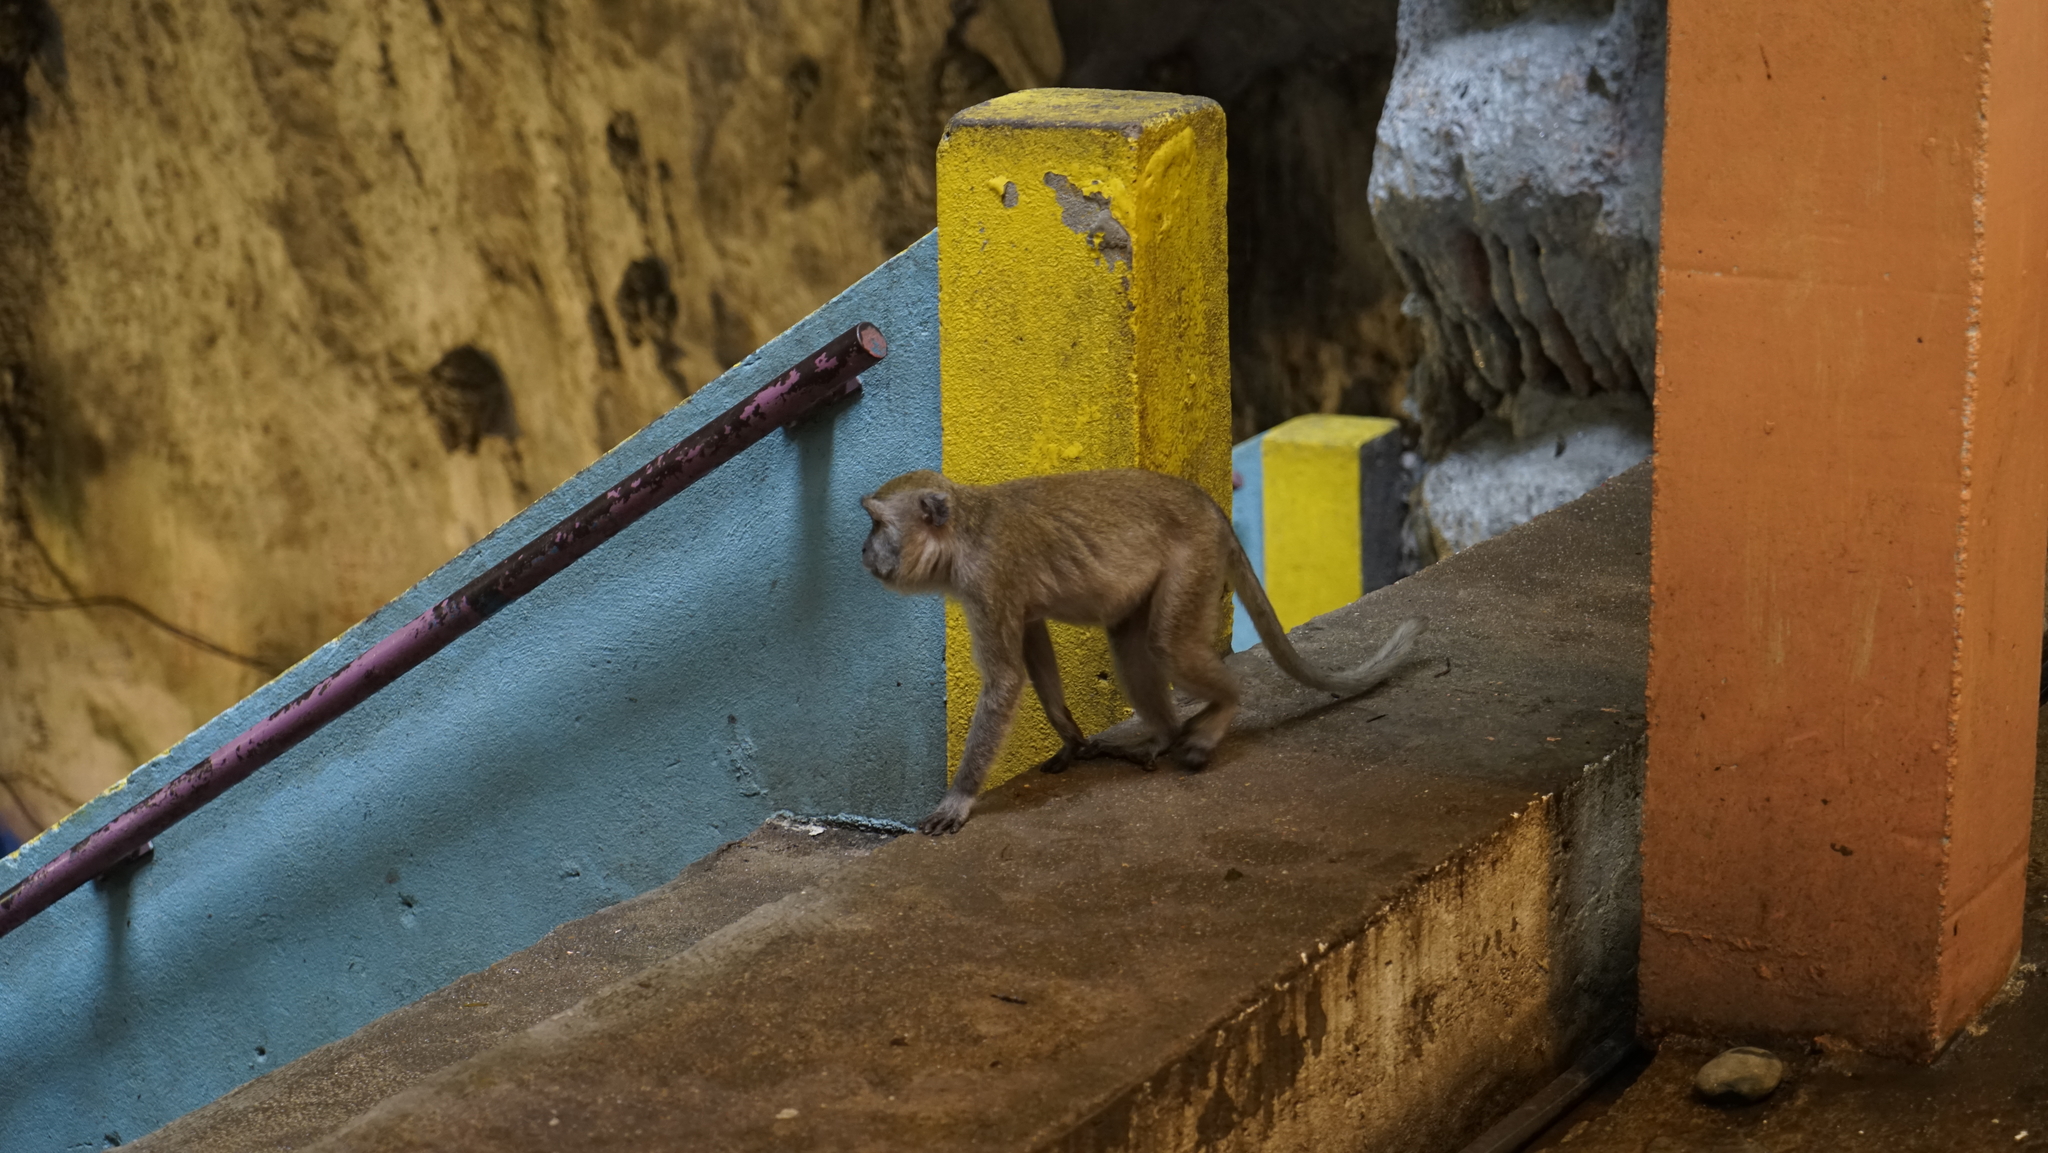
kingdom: Animalia
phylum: Chordata
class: Mammalia
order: Primates
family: Cercopithecidae
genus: Macaca
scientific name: Macaca fascicularis
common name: Crab-eating macaque
